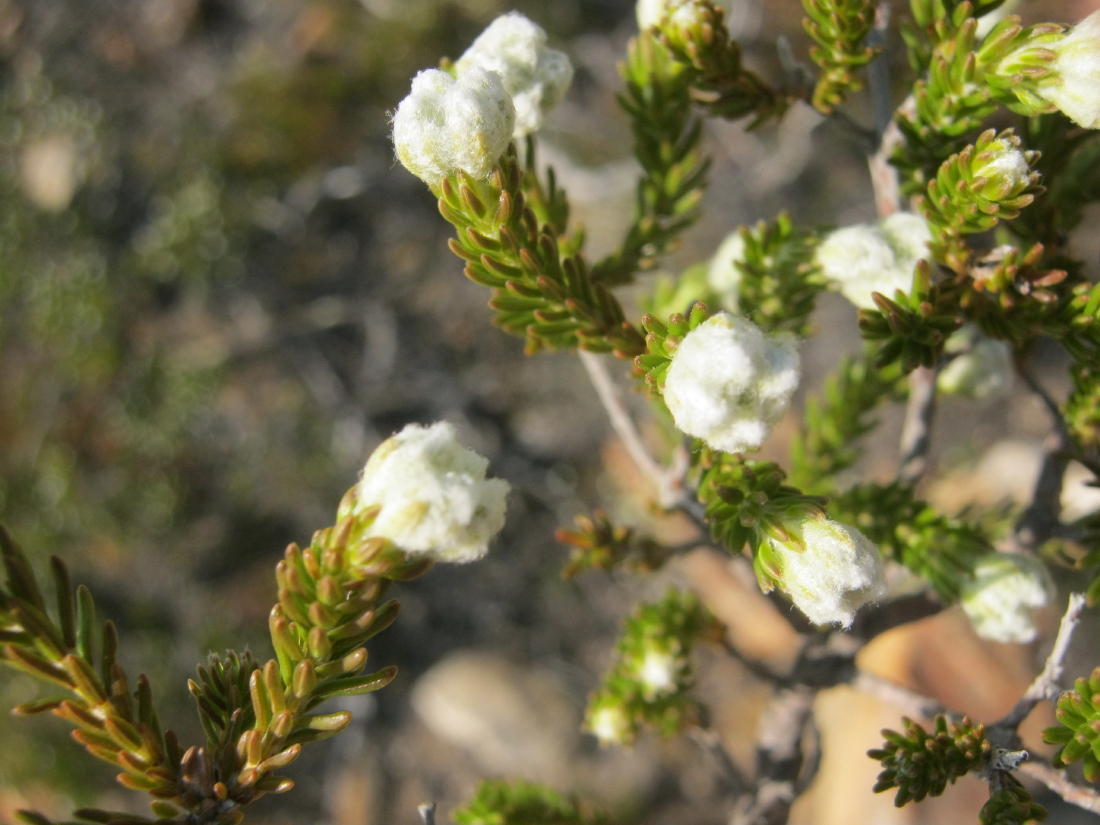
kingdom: Plantae
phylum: Tracheophyta
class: Magnoliopsida
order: Ericales
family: Ericaceae
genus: Erica
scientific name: Erica flocciflora
